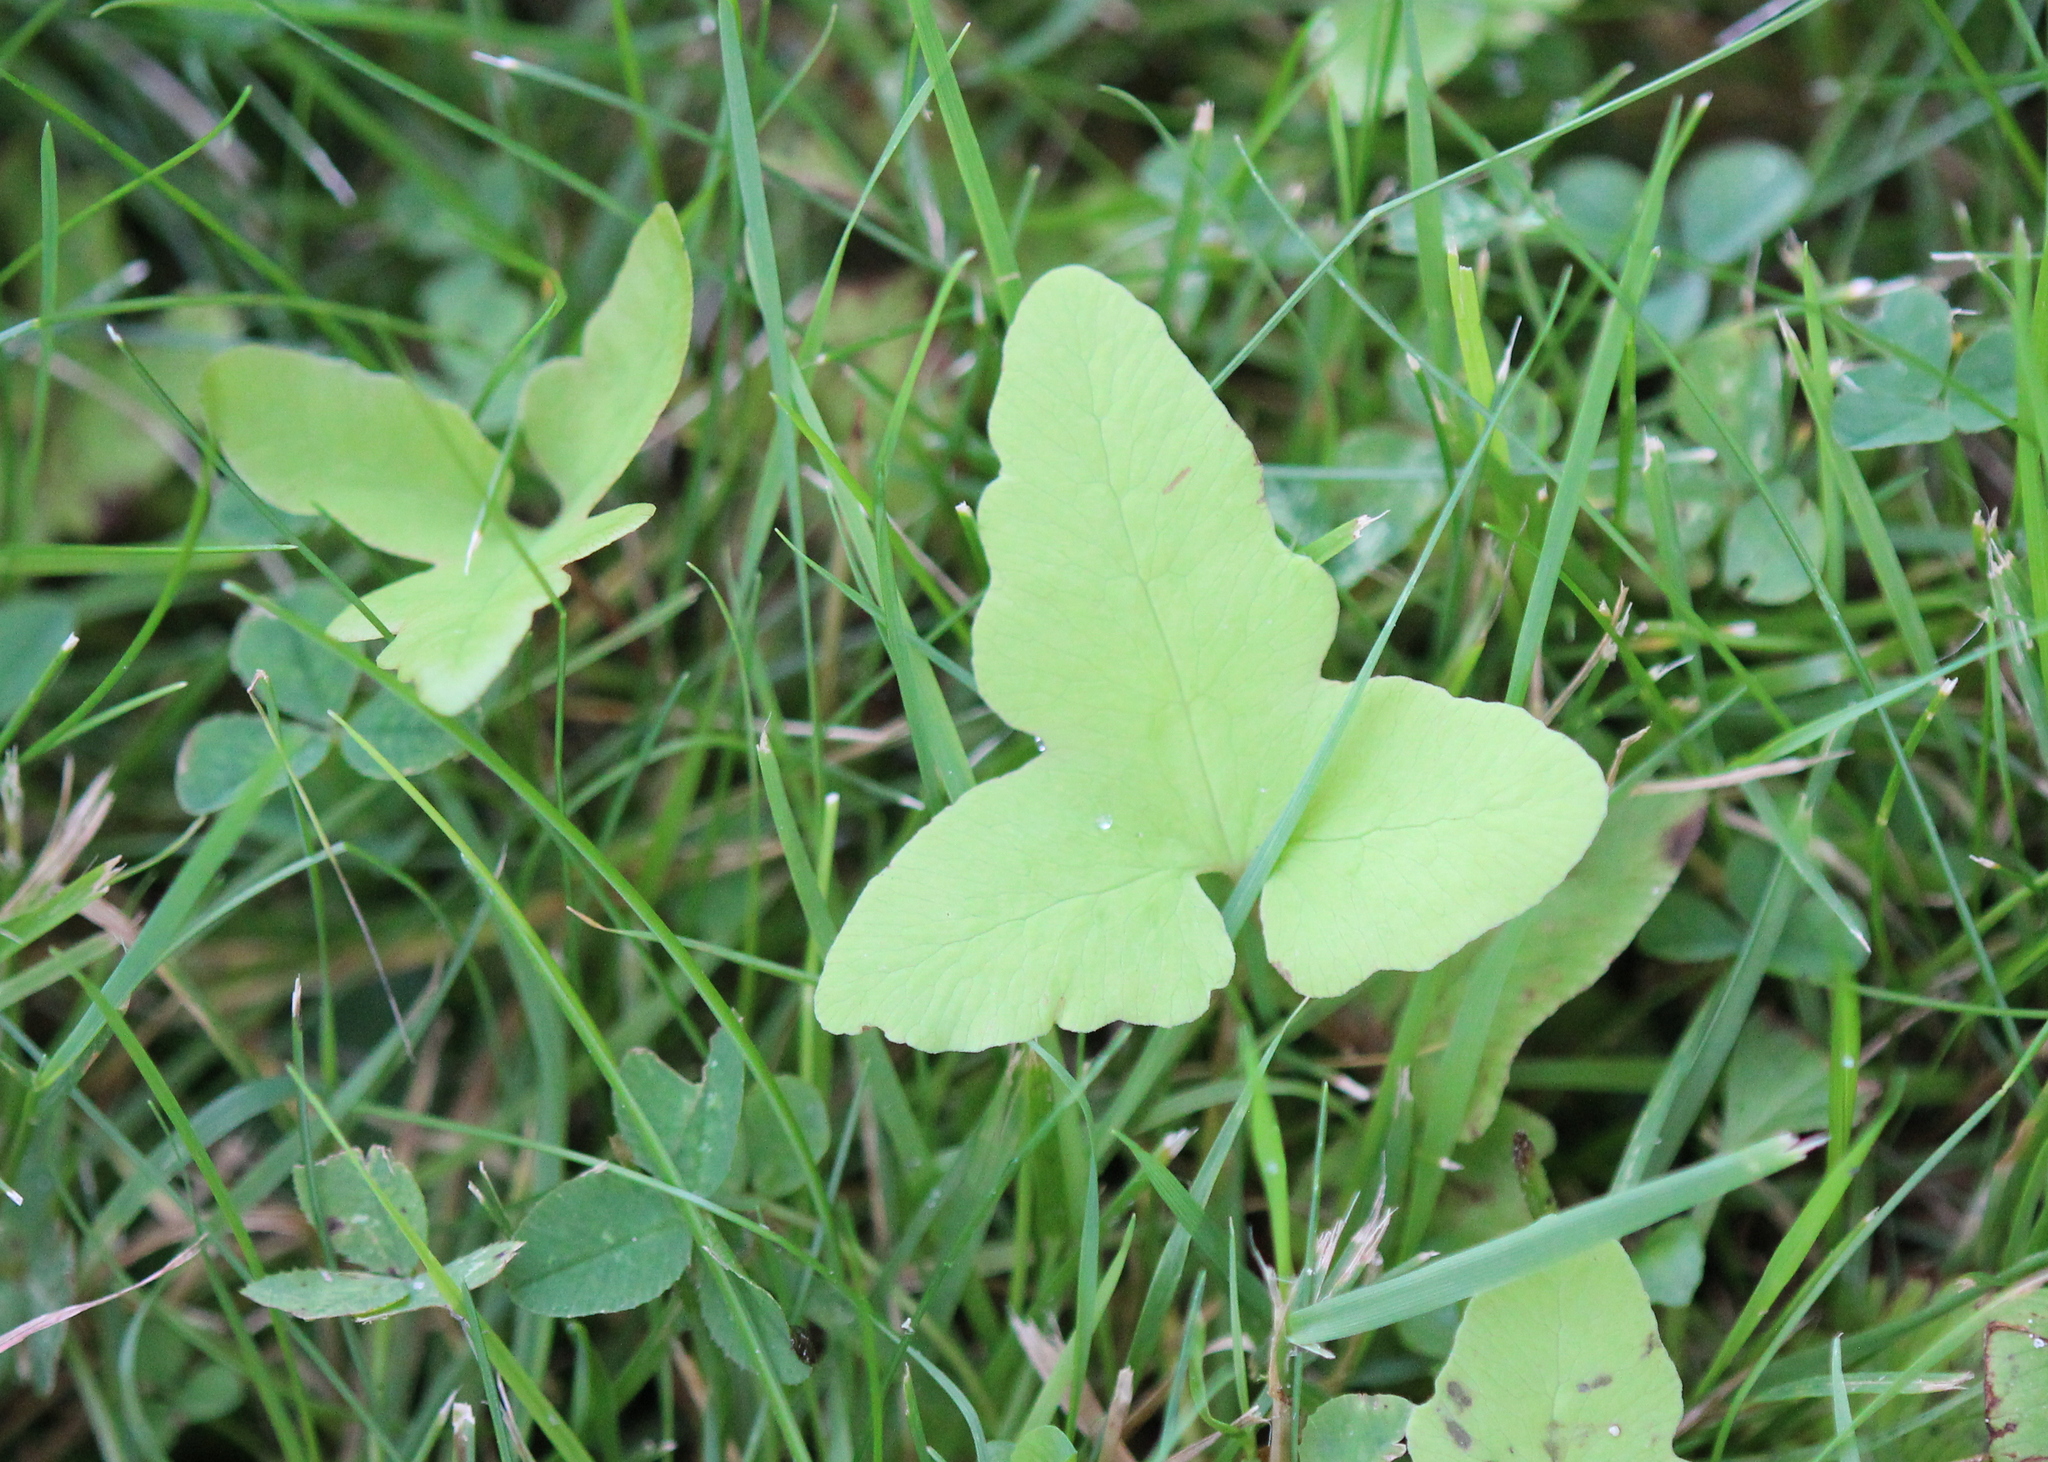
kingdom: Plantae
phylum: Tracheophyta
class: Polypodiopsida
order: Polypodiales
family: Onocleaceae
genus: Onoclea
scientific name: Onoclea sensibilis
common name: Sensitive fern
